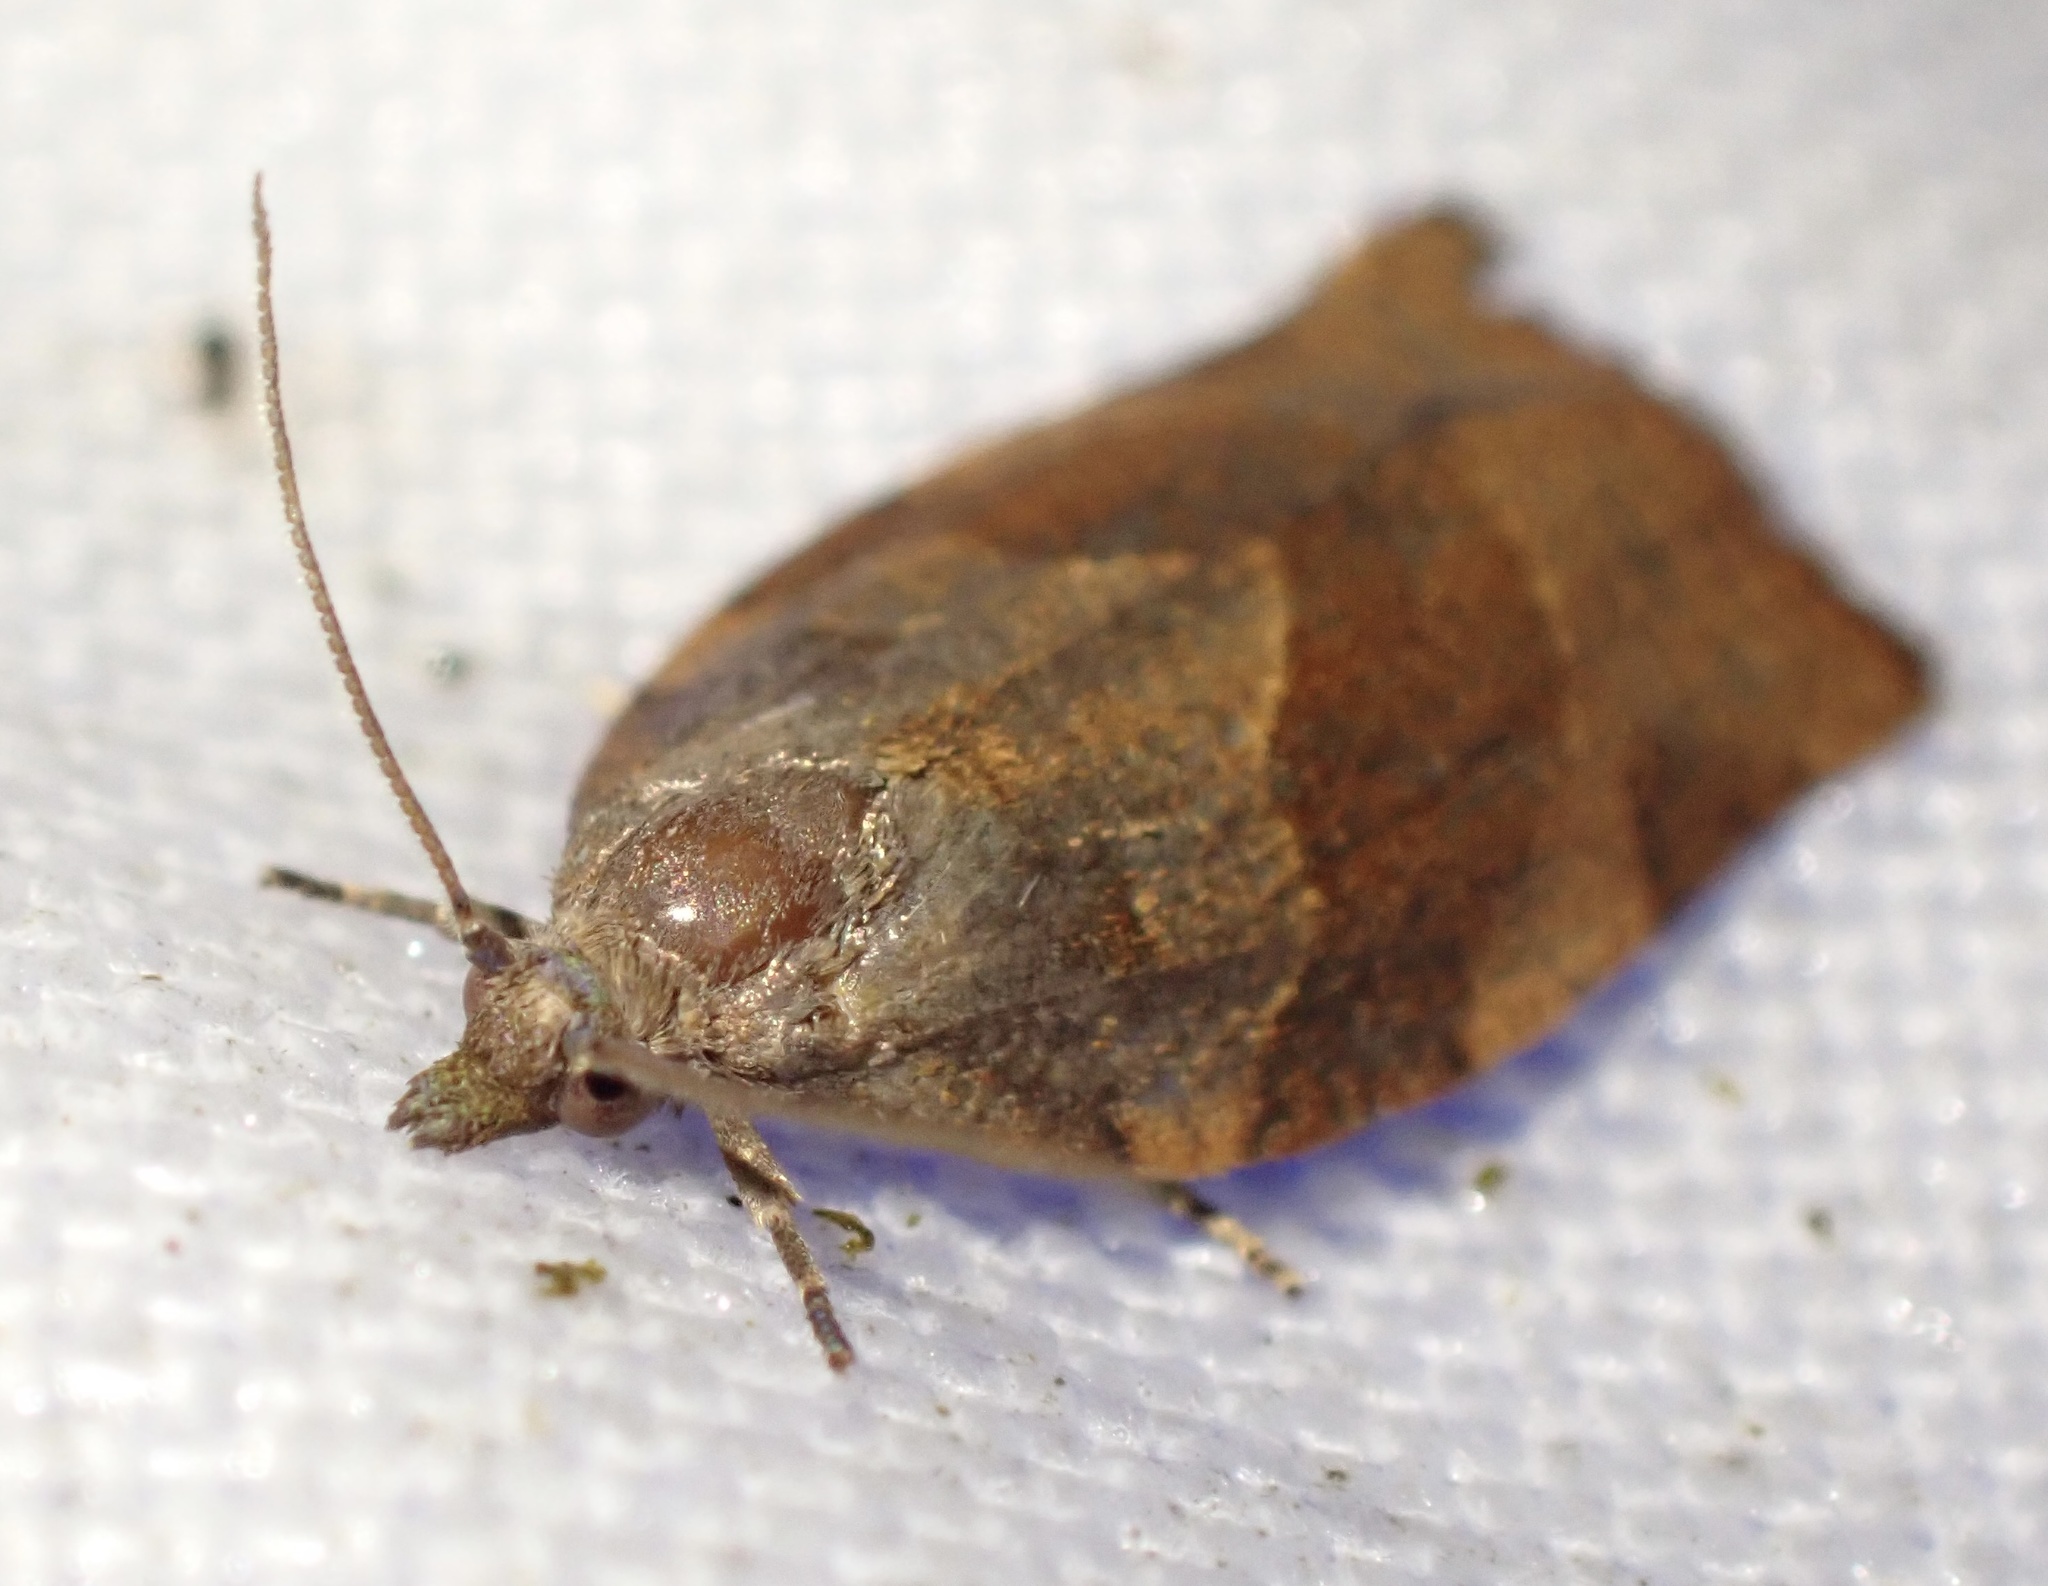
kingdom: Animalia
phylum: Arthropoda
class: Insecta
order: Lepidoptera
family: Tortricidae
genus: Pandemis
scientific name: Pandemis heparana
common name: Dark fruit-tree tortrix
